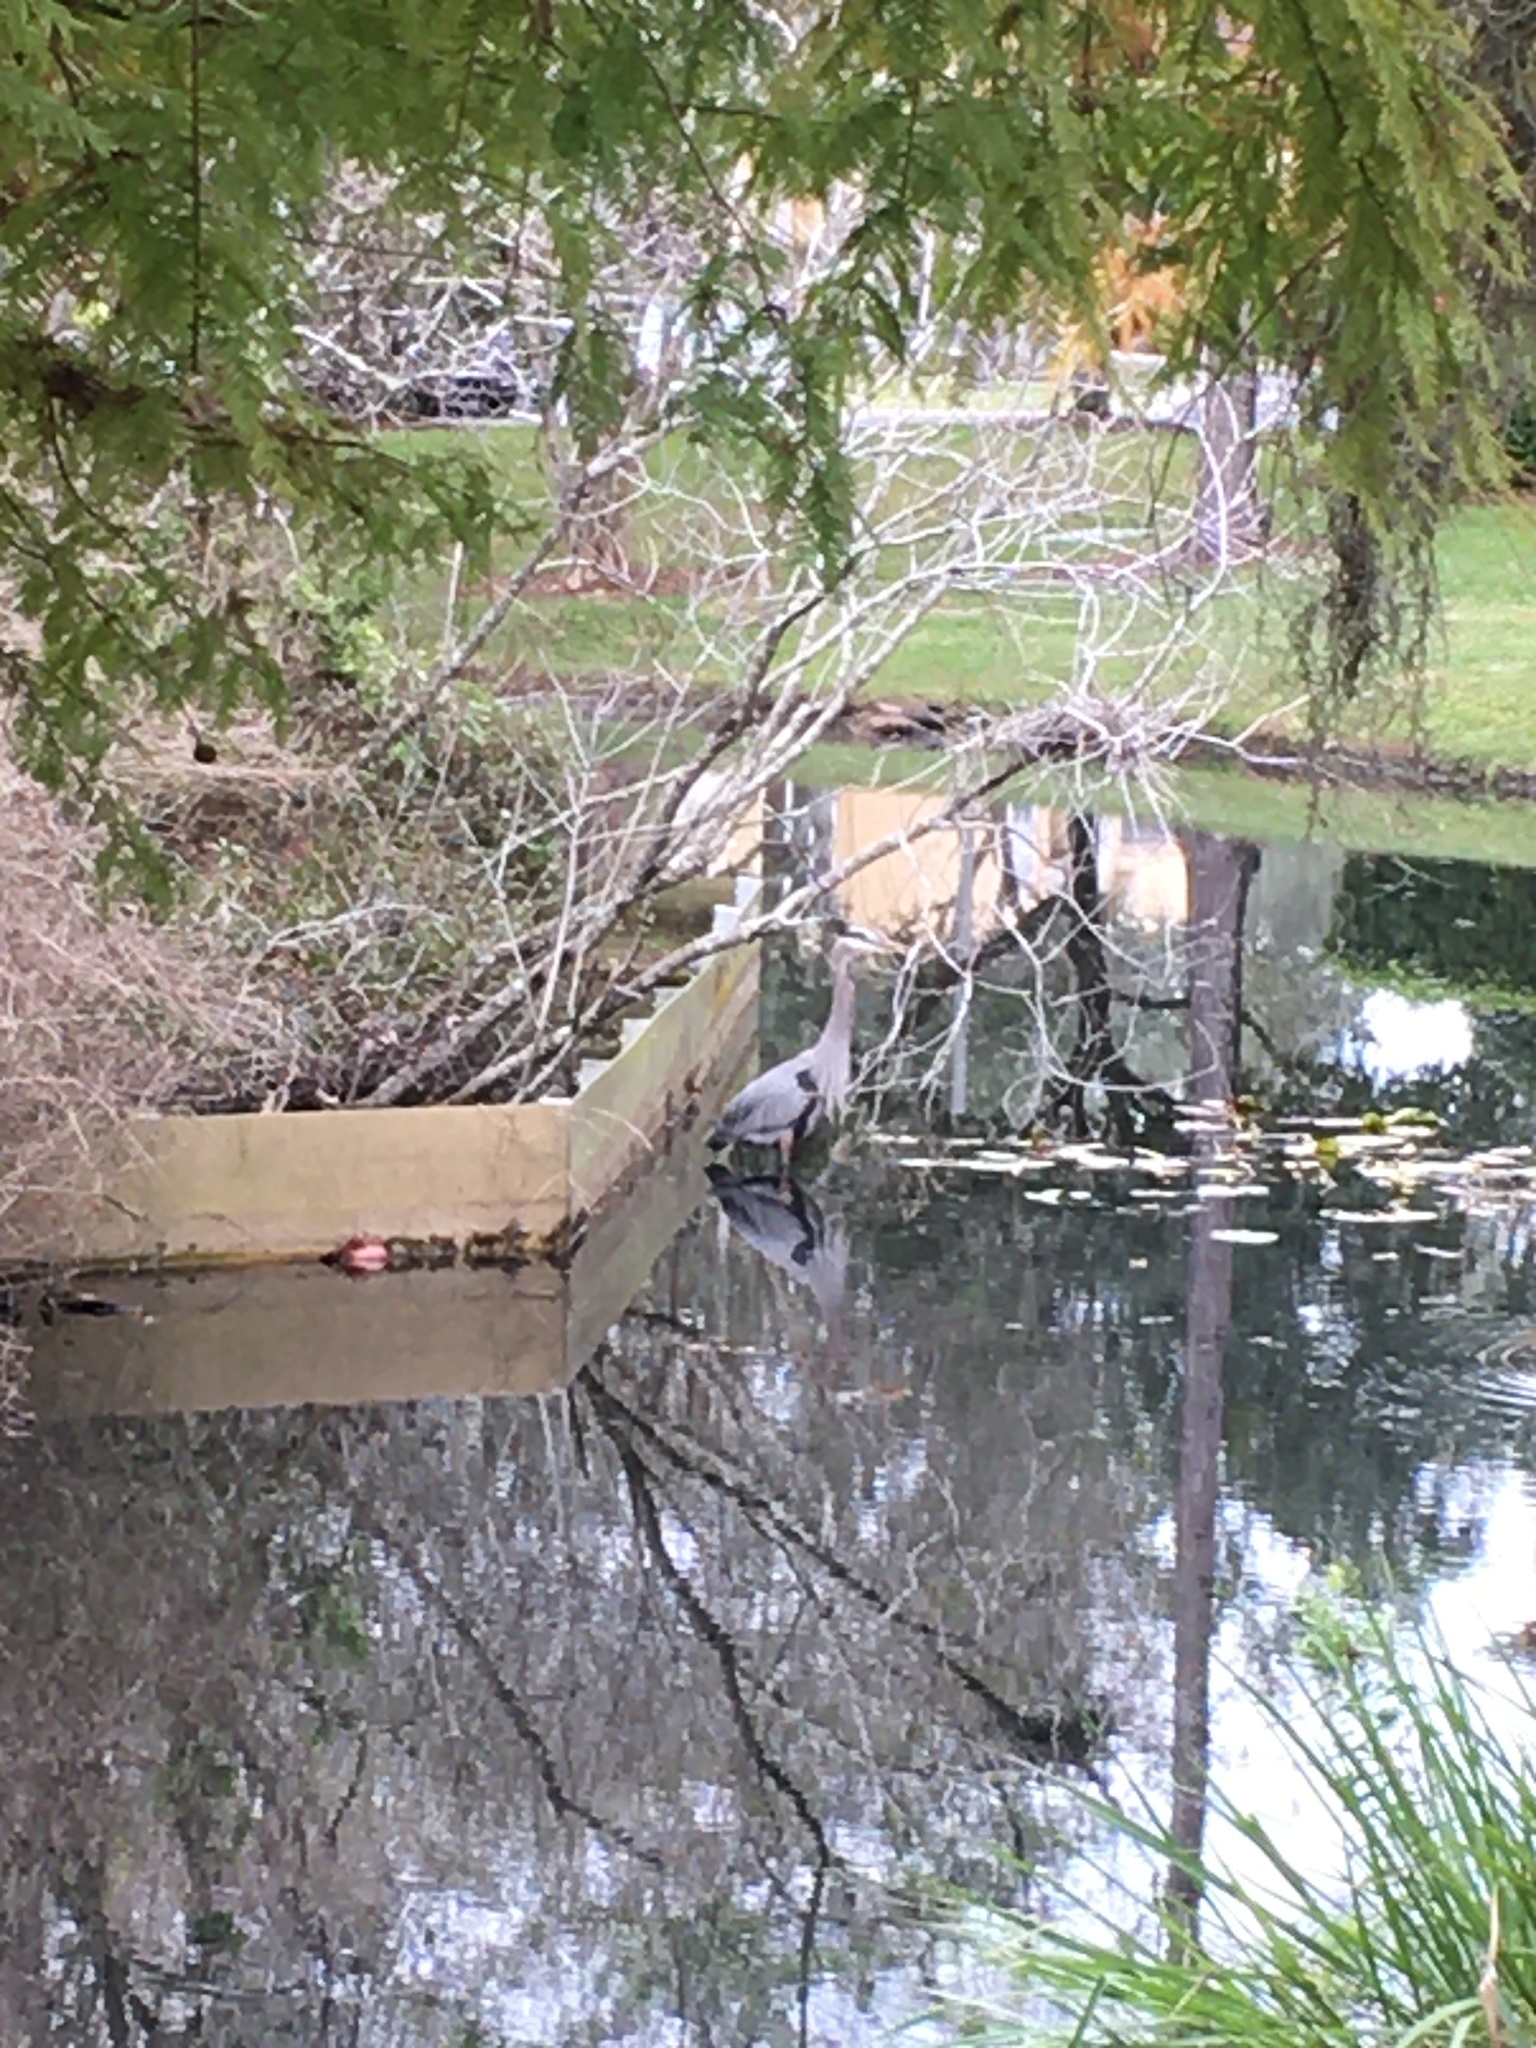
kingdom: Animalia
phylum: Chordata
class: Aves
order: Pelecaniformes
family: Ardeidae
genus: Ardea
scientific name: Ardea herodias
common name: Great blue heron
